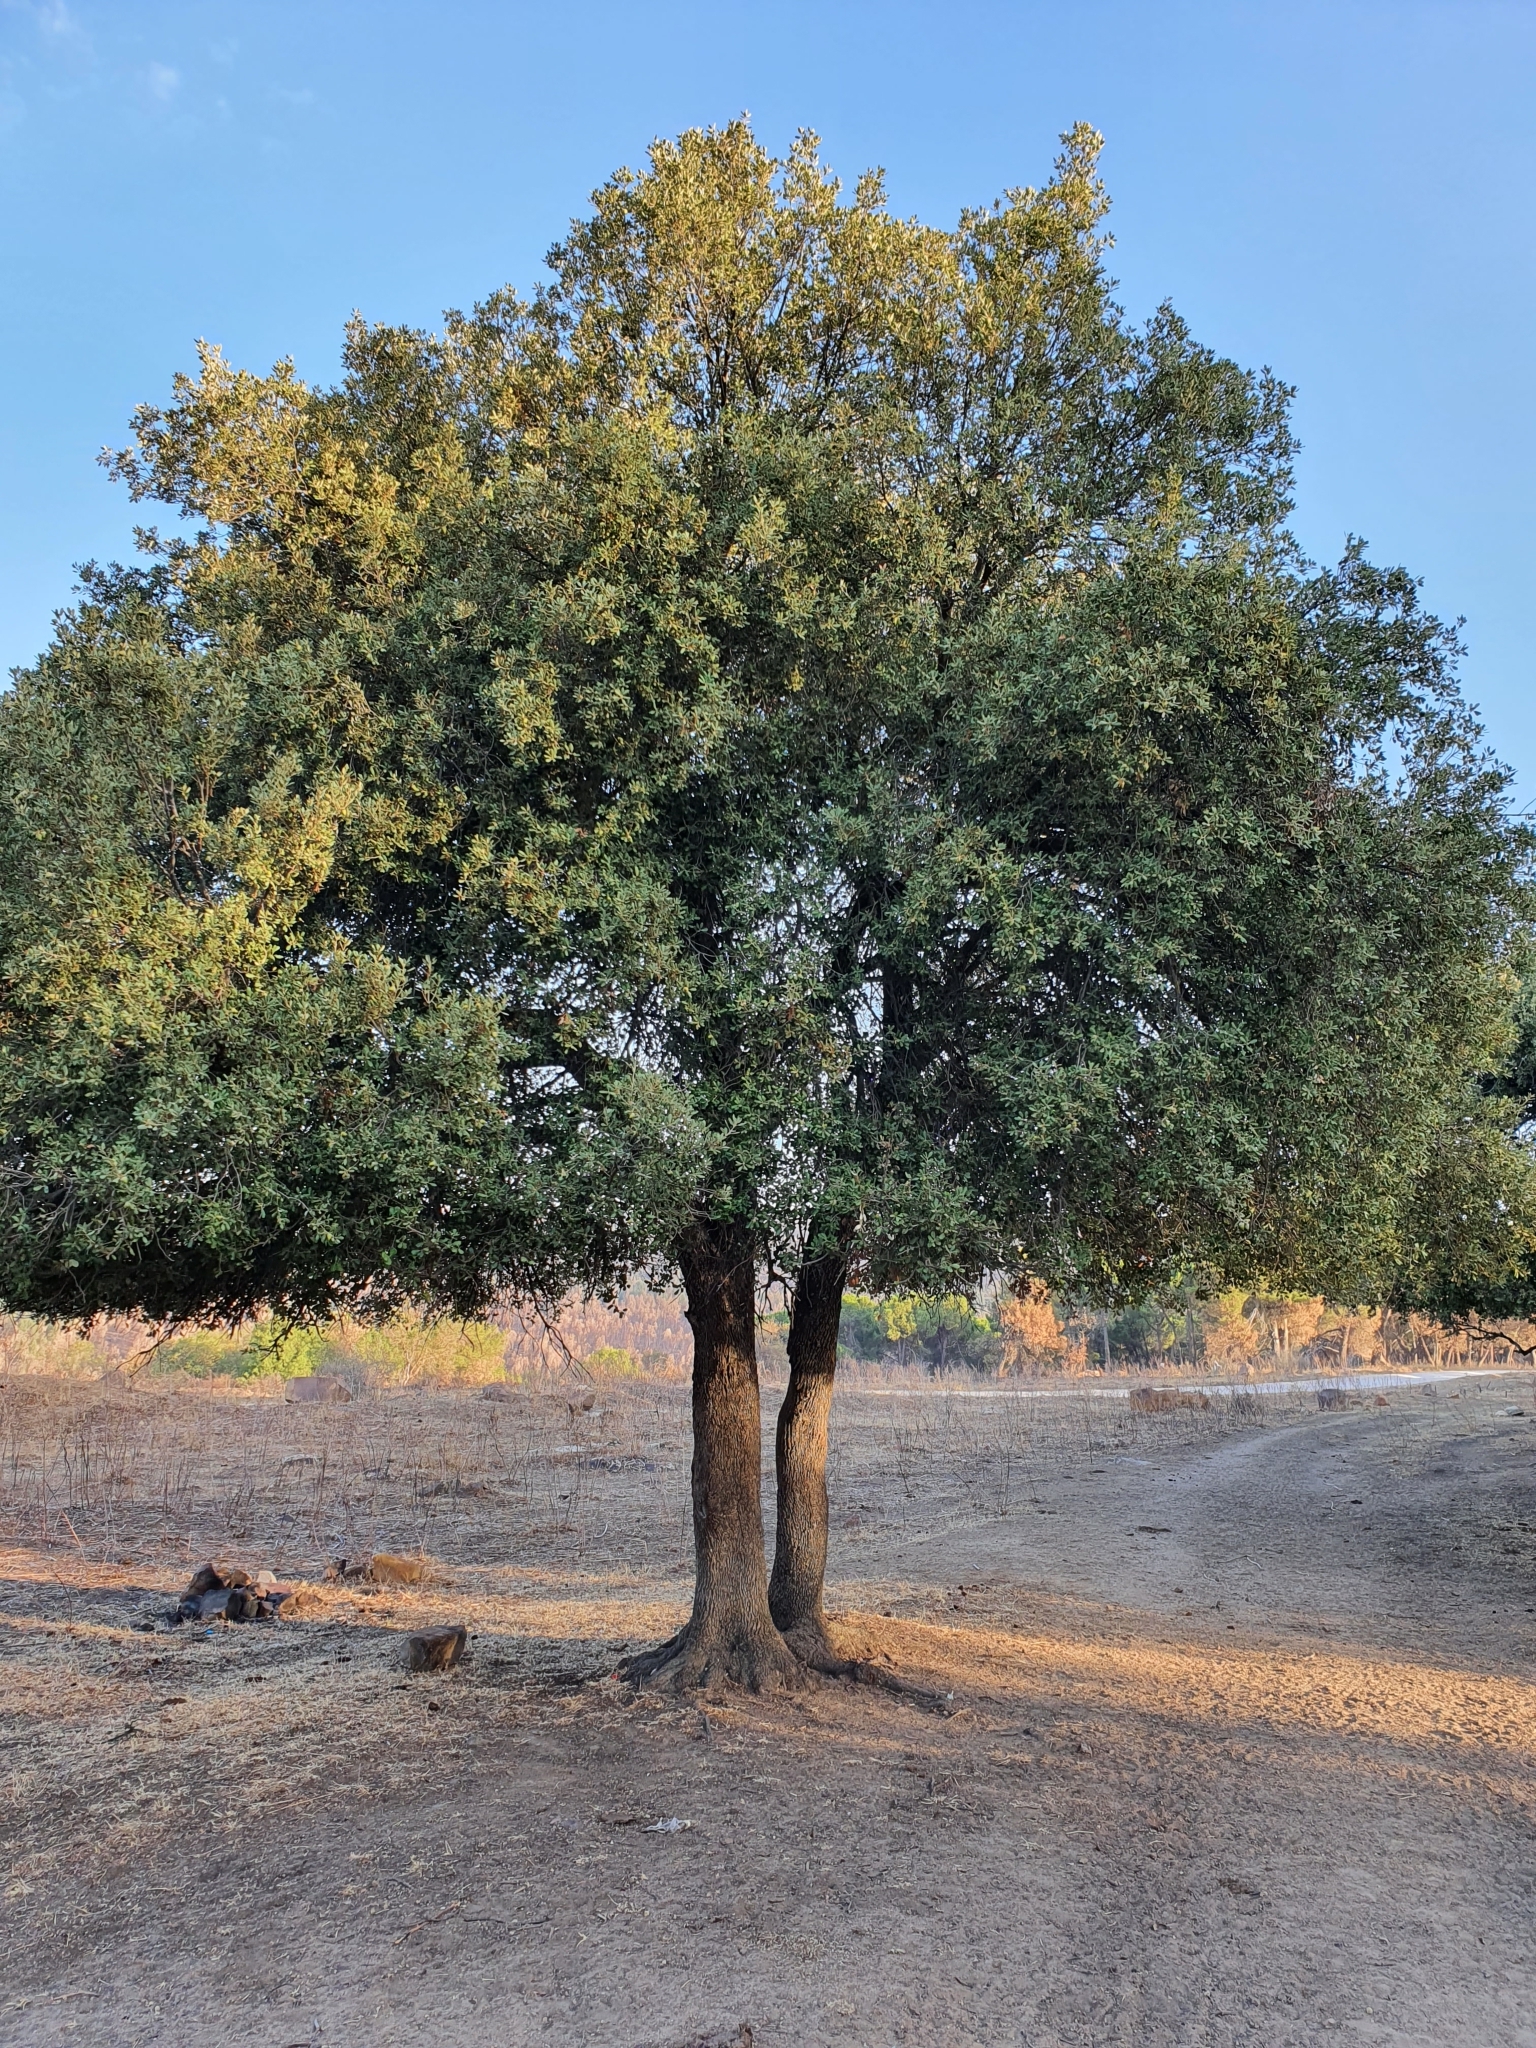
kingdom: Plantae
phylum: Tracheophyta
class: Magnoliopsida
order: Fagales
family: Fagaceae
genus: Quercus
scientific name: Quercus rotundifolia
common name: Holm oak
